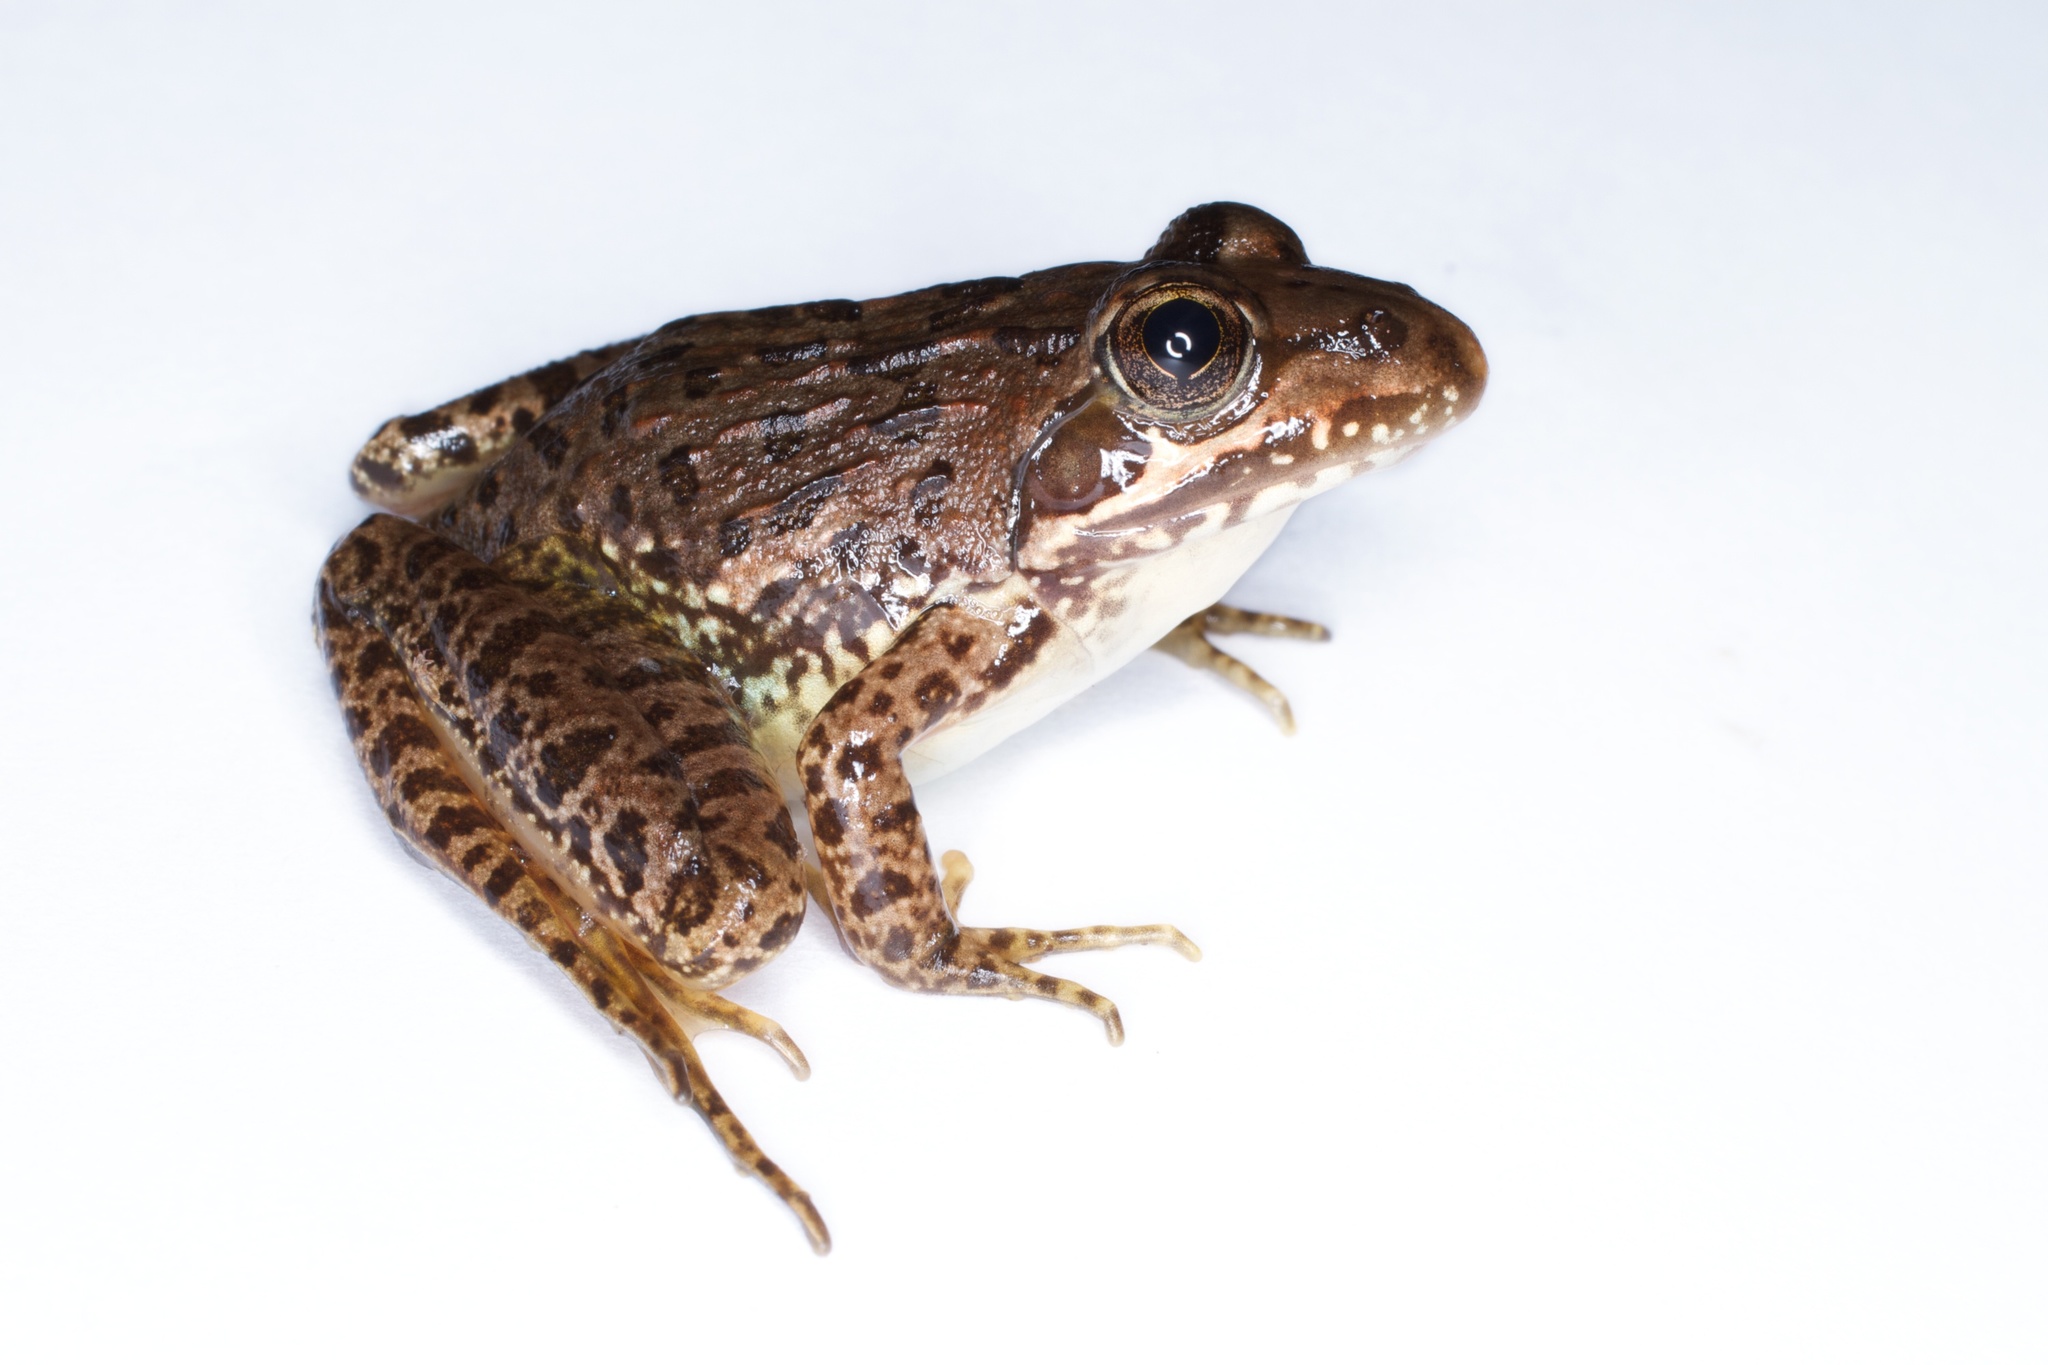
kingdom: Animalia
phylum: Chordata
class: Amphibia
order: Anura
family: Pyxicephalidae
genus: Amietia
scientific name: Amietia delalandii
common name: Delalande's river frog
